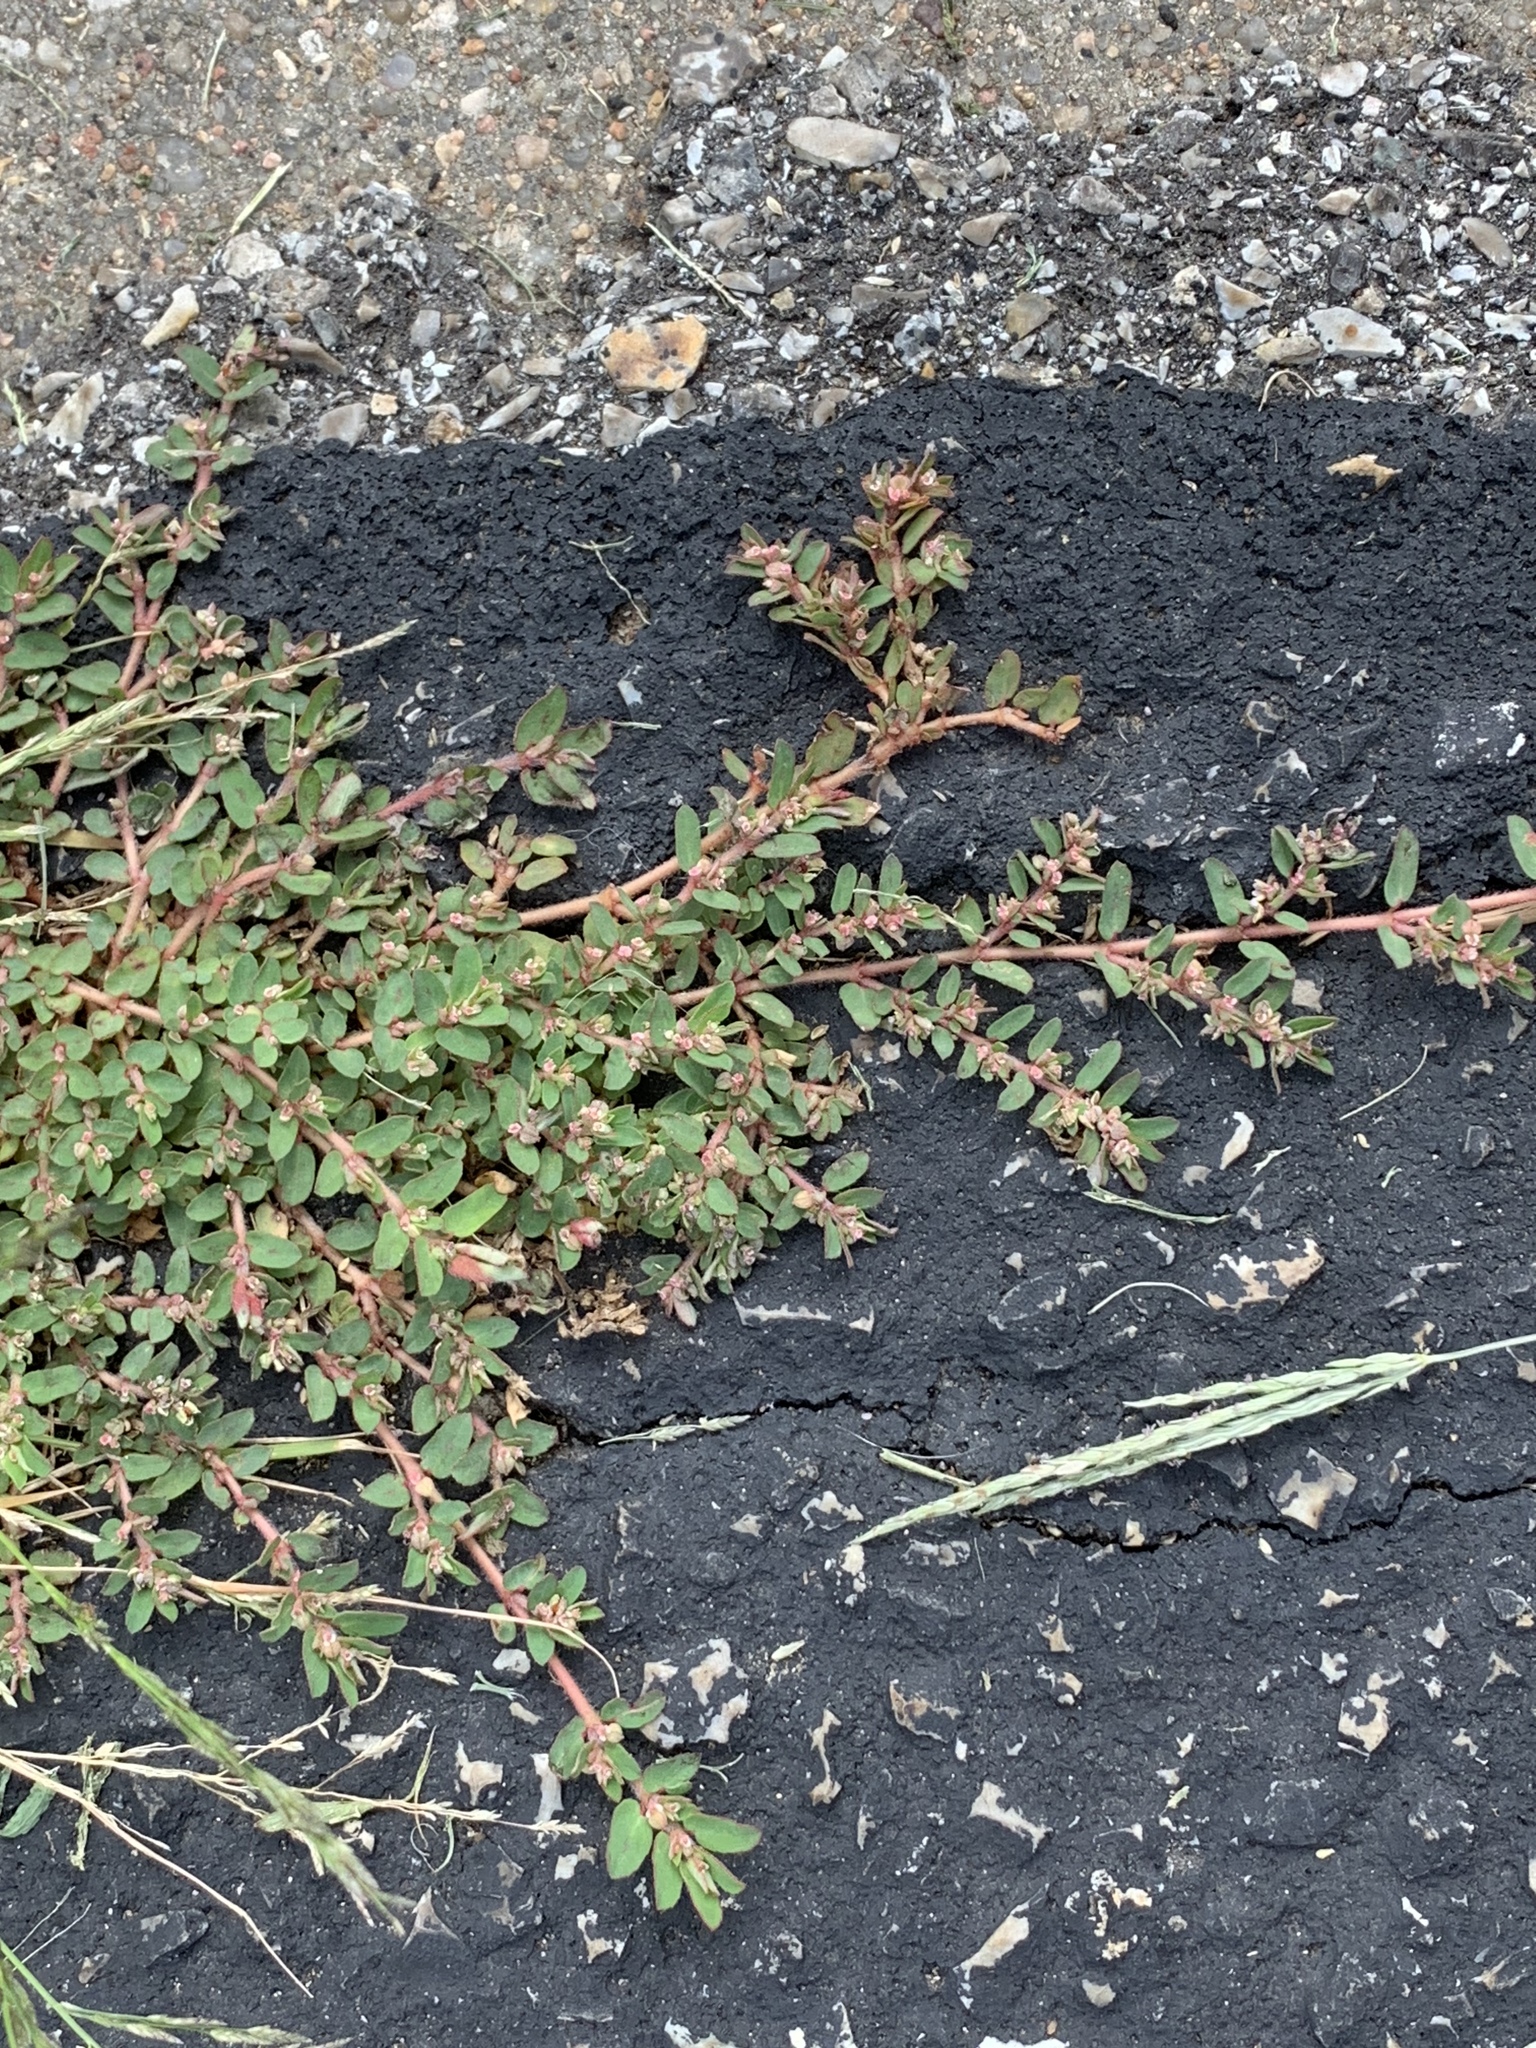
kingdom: Plantae
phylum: Tracheophyta
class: Magnoliopsida
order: Malpighiales
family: Euphorbiaceae
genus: Euphorbia
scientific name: Euphorbia maculata
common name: Spotted spurge
